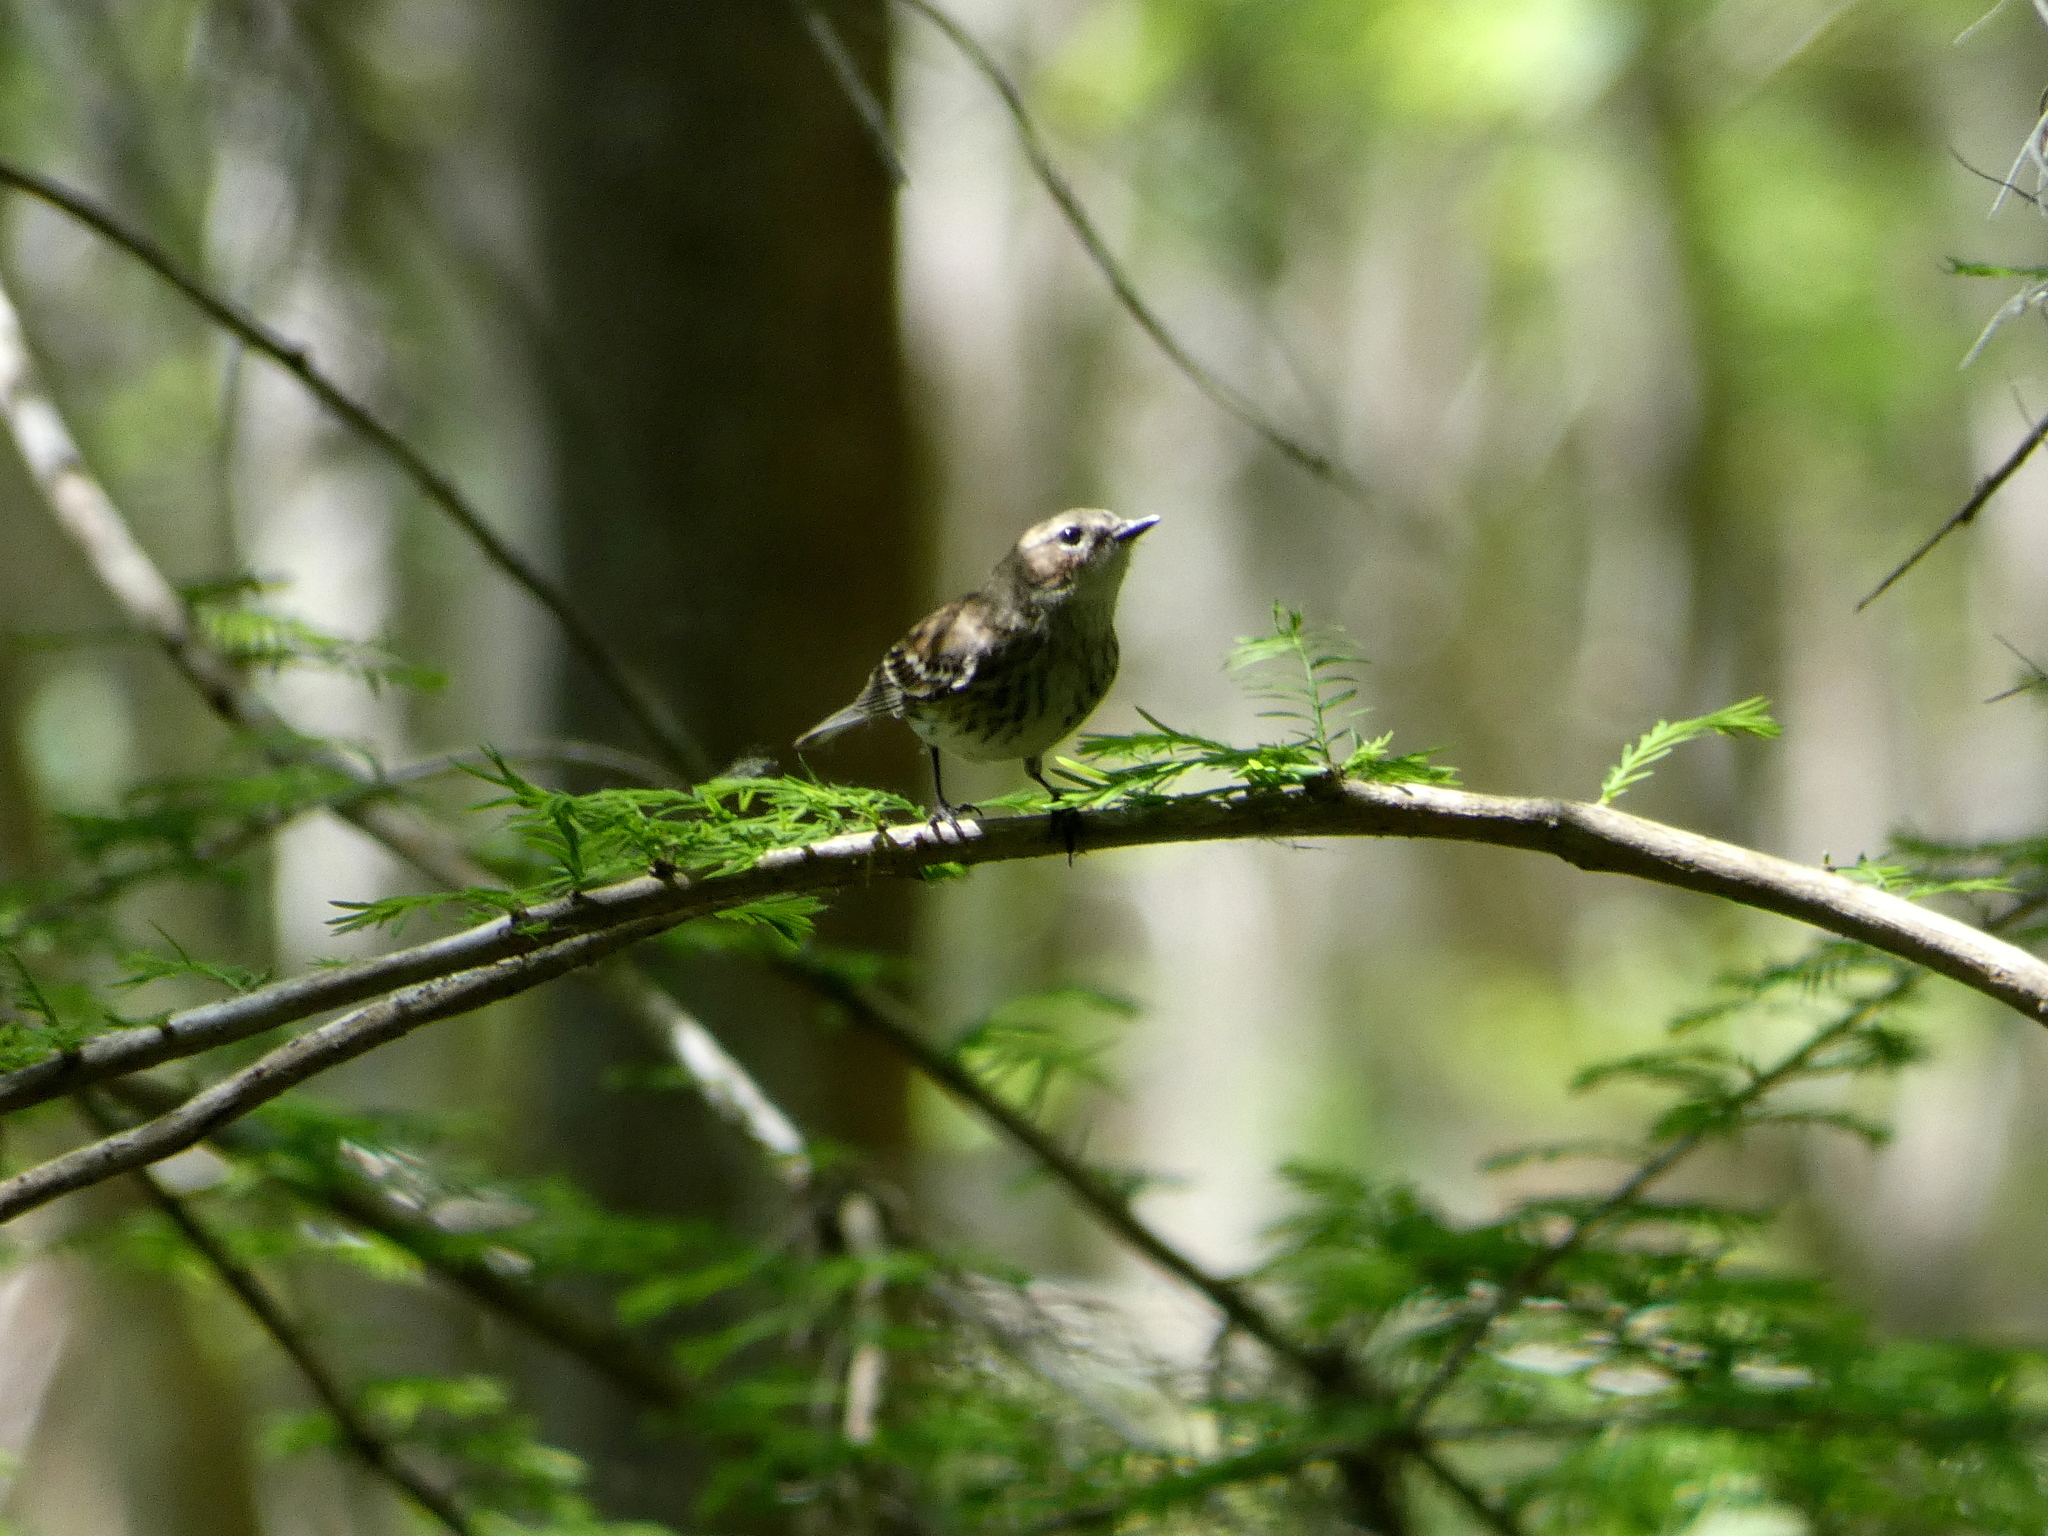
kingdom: Animalia
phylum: Chordata
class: Aves
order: Passeriformes
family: Parulidae
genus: Setophaga
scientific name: Setophaga coronata
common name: Myrtle warbler
